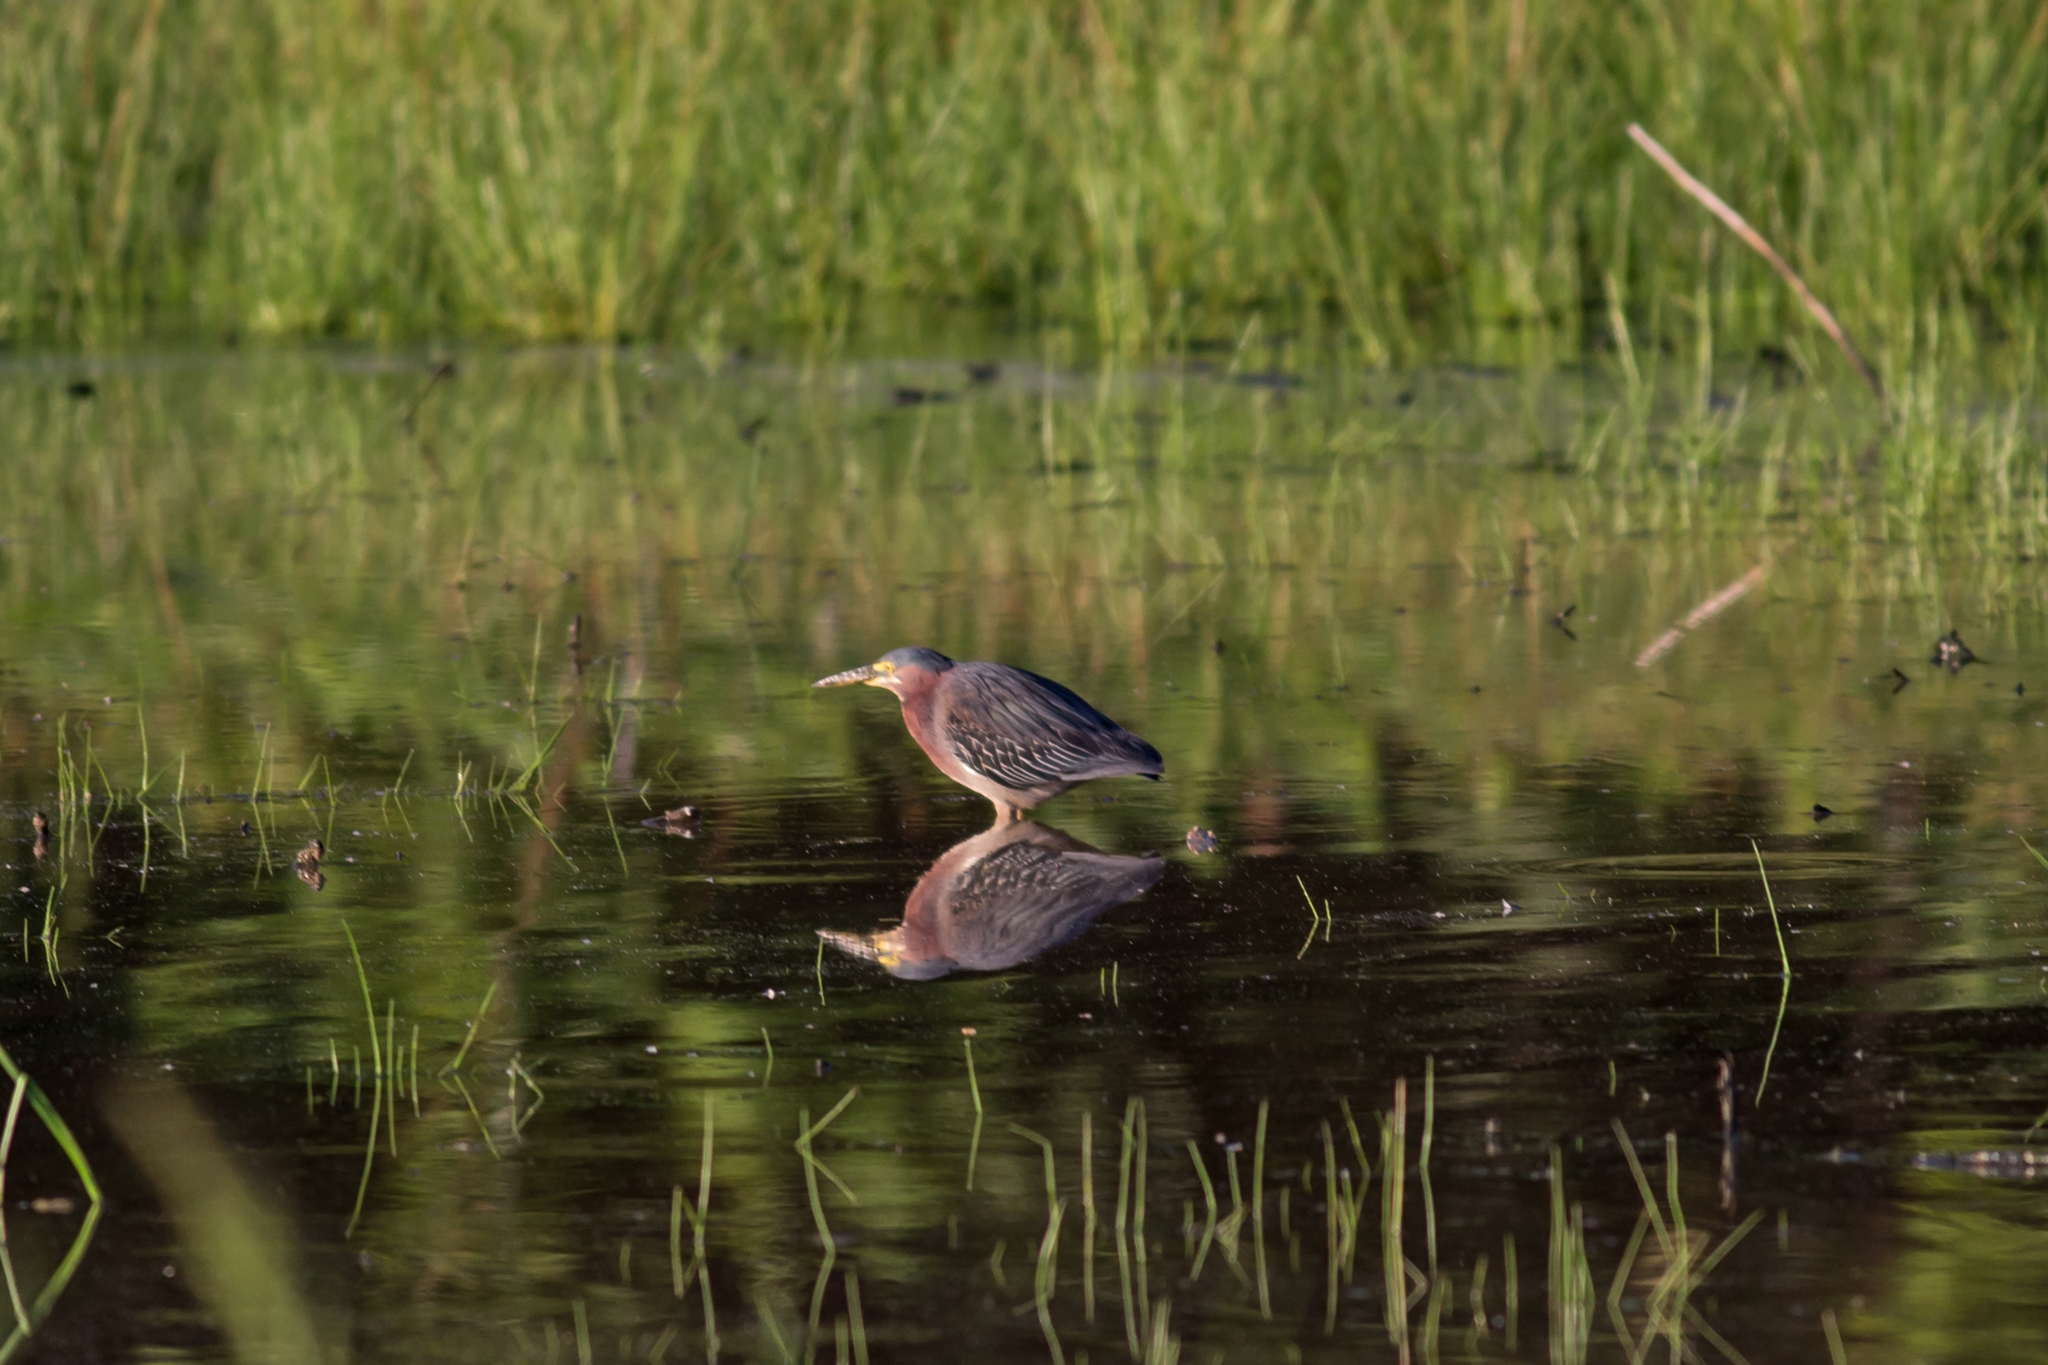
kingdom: Animalia
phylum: Chordata
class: Aves
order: Pelecaniformes
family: Ardeidae
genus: Butorides
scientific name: Butorides virescens
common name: Green heron
